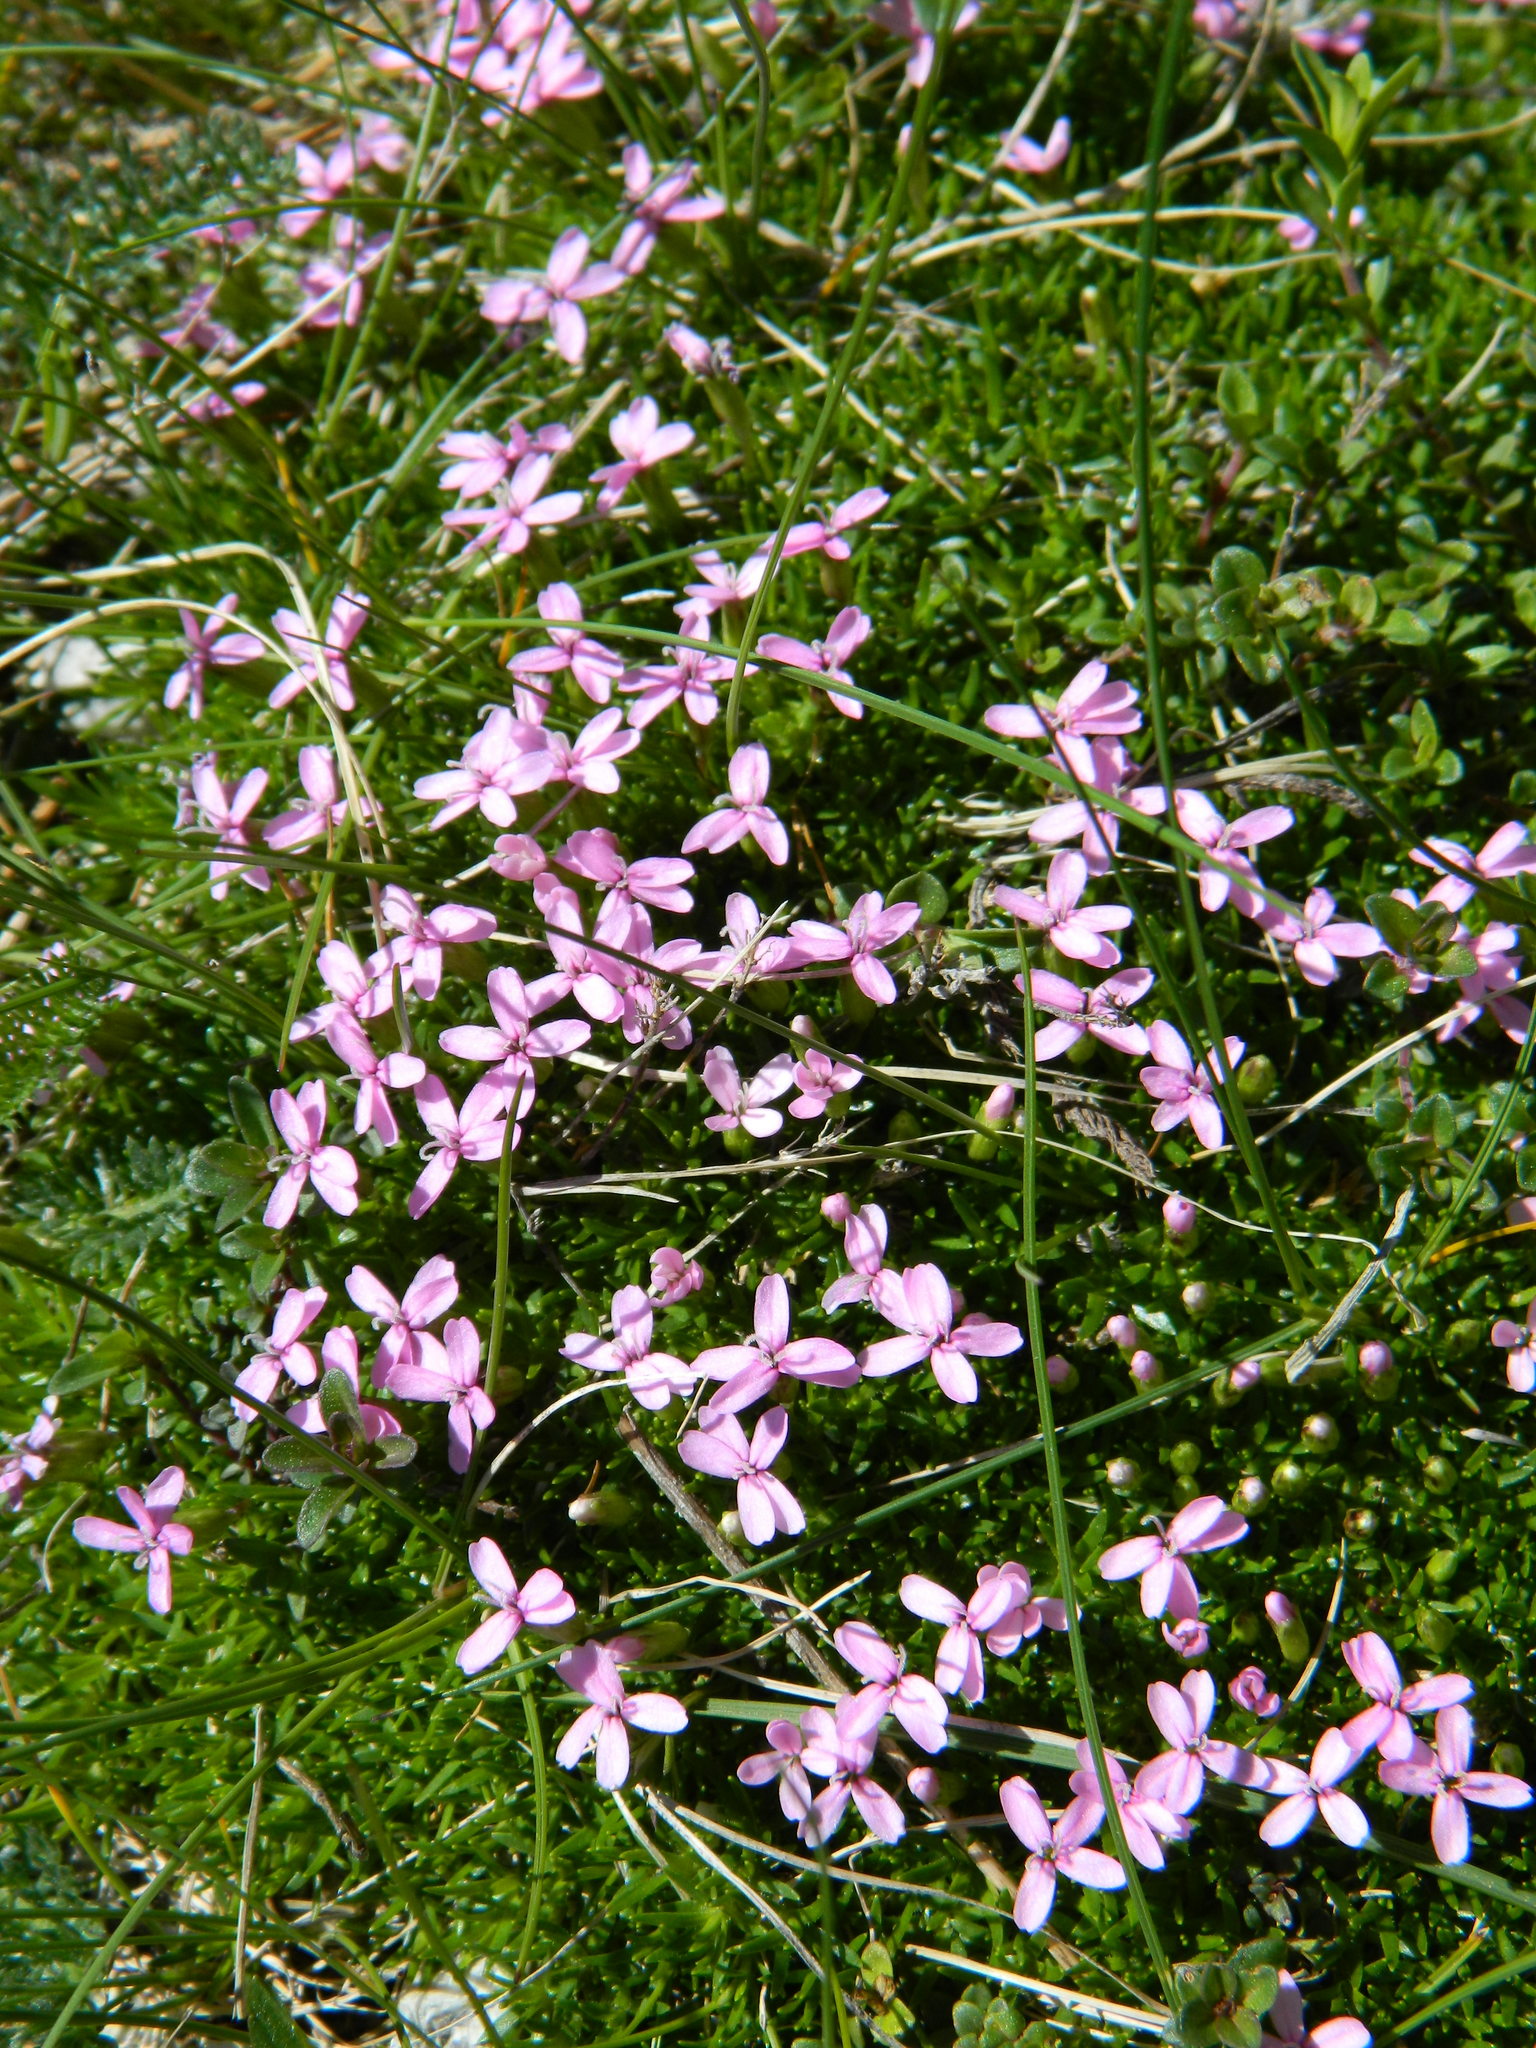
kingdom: Plantae
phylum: Tracheophyta
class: Magnoliopsida
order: Caryophyllales
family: Caryophyllaceae
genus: Silene
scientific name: Silene acaulis
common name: Moss campion
